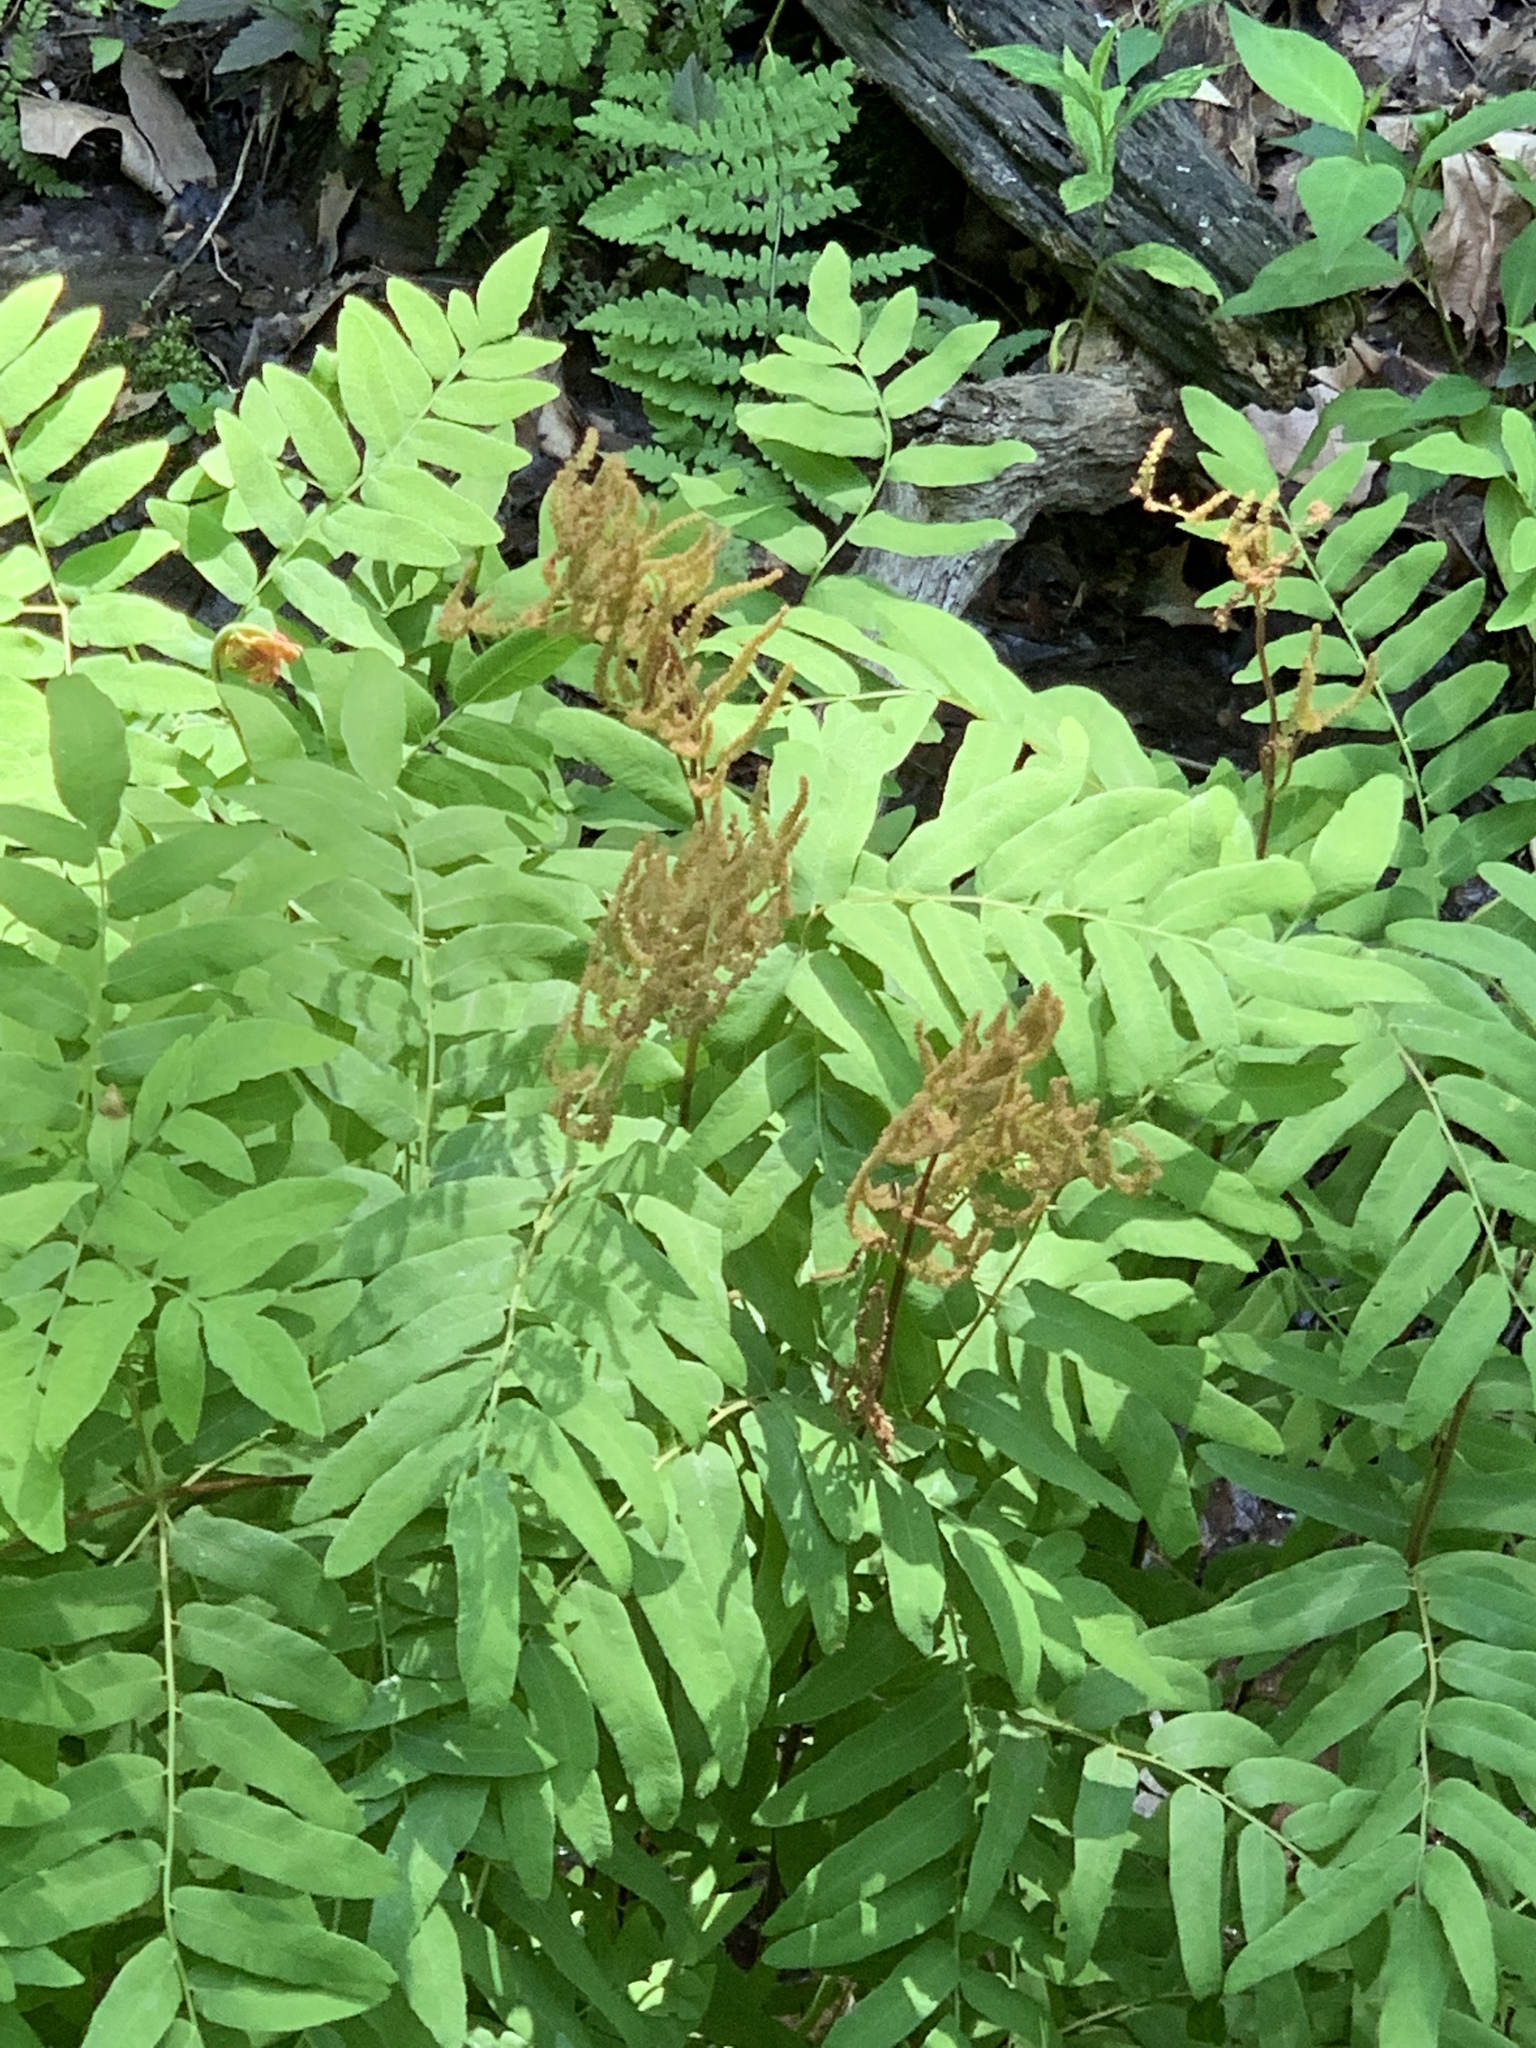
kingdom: Plantae
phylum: Tracheophyta
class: Polypodiopsida
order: Osmundales
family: Osmundaceae
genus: Osmunda
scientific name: Osmunda spectabilis
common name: American royal fern
